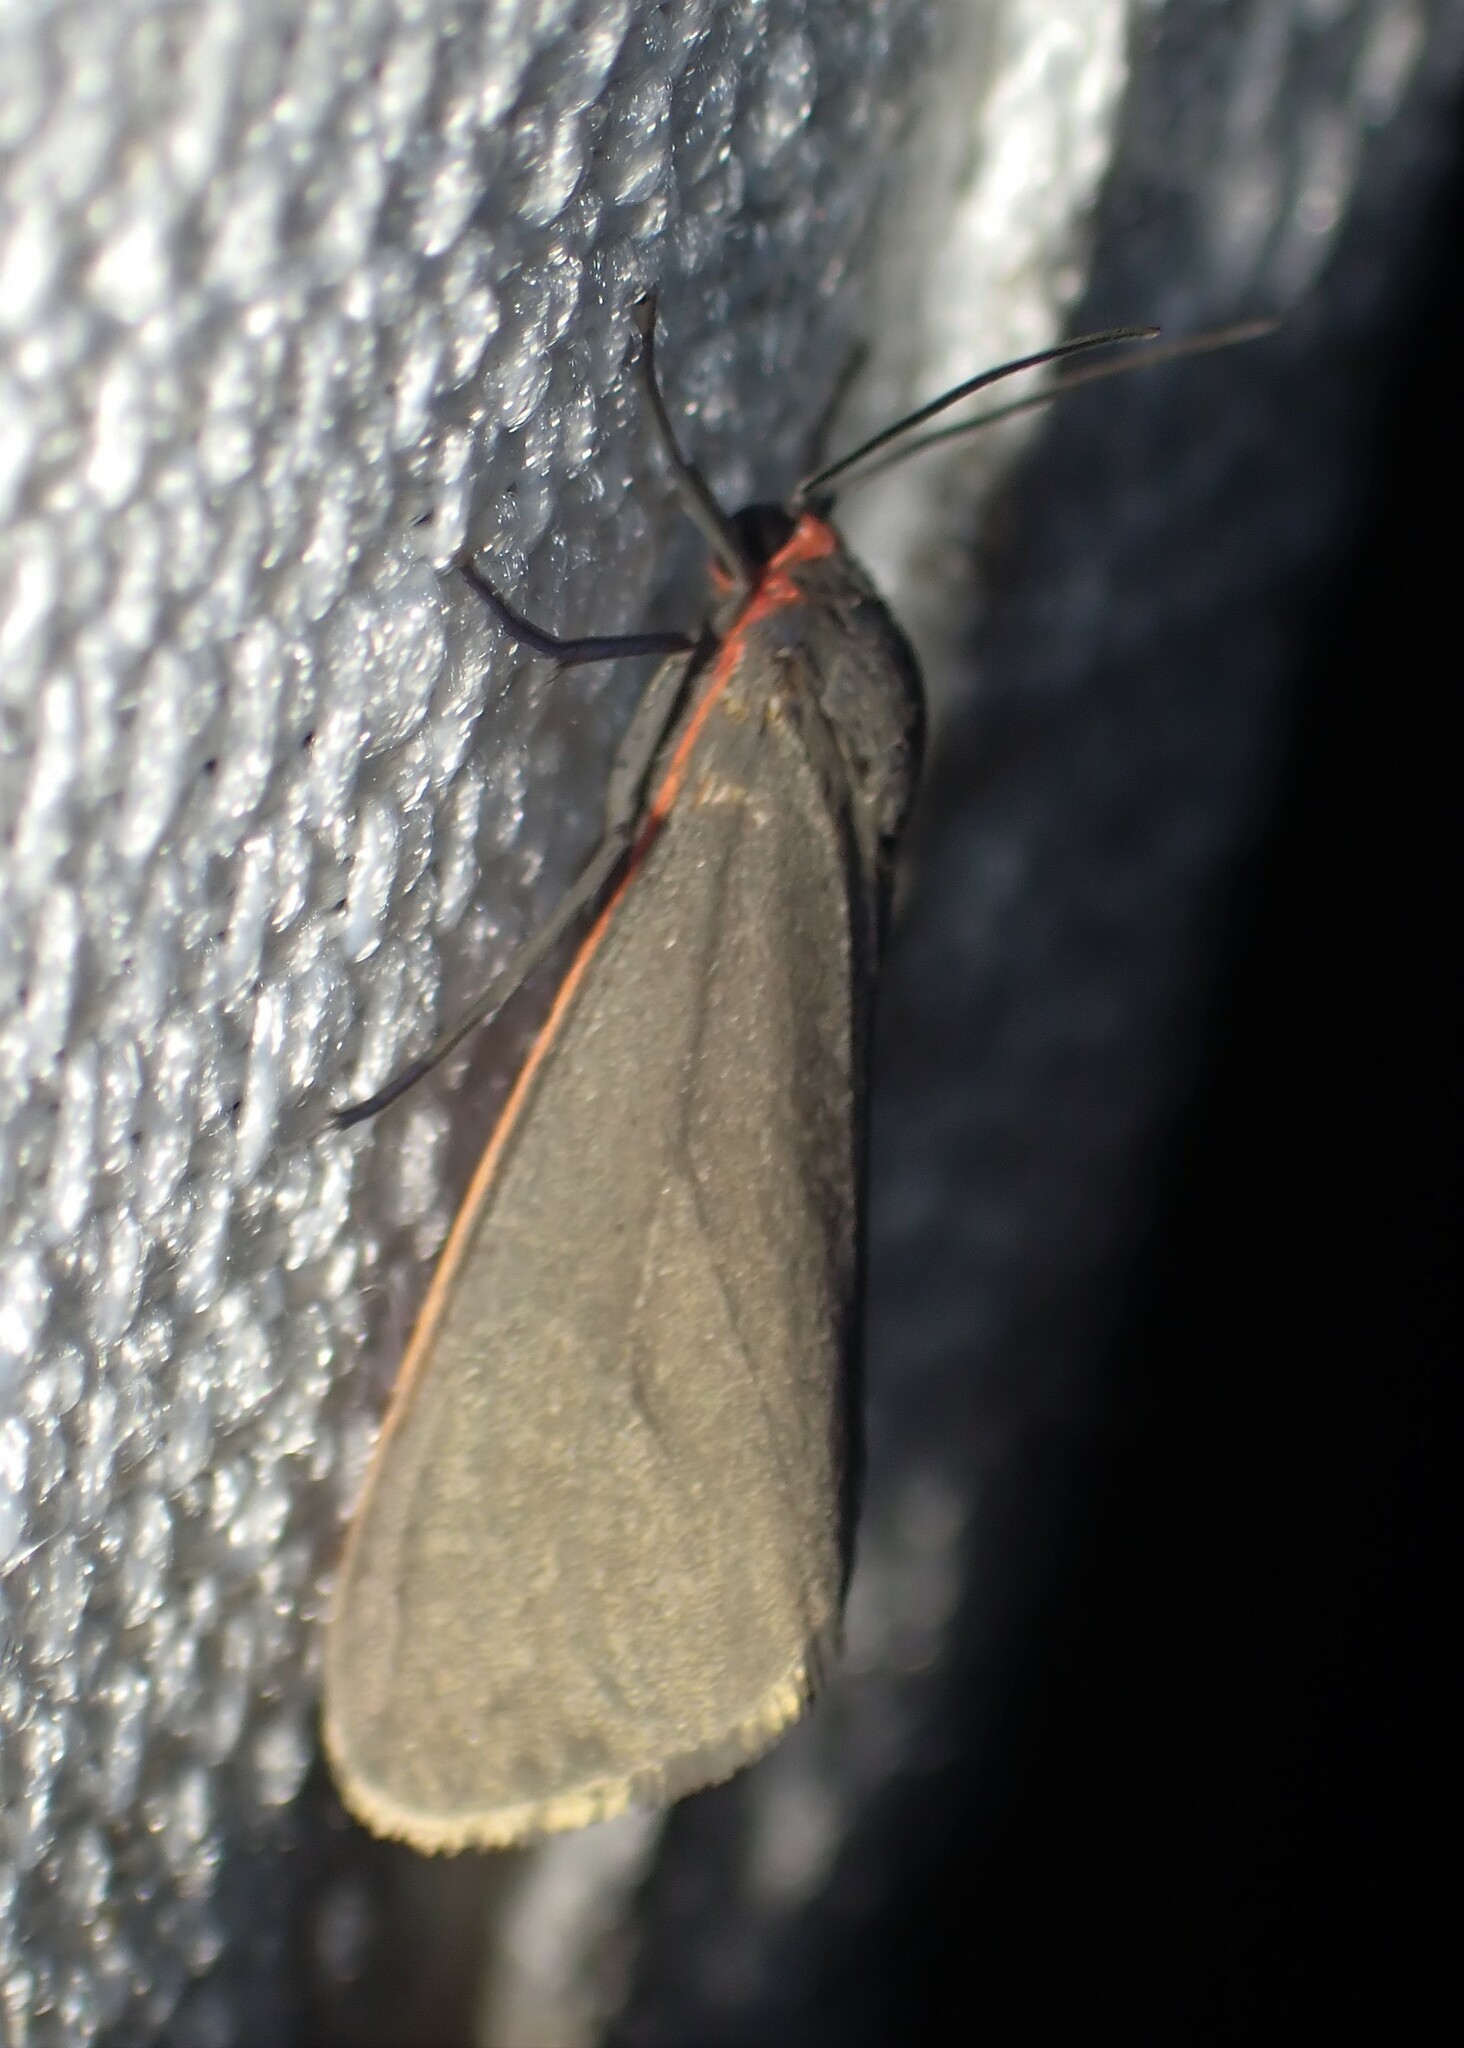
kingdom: Animalia
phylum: Arthropoda
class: Insecta
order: Lepidoptera
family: Erebidae
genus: Virbia
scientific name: Virbia laeta
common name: Joyful holomelina moth
